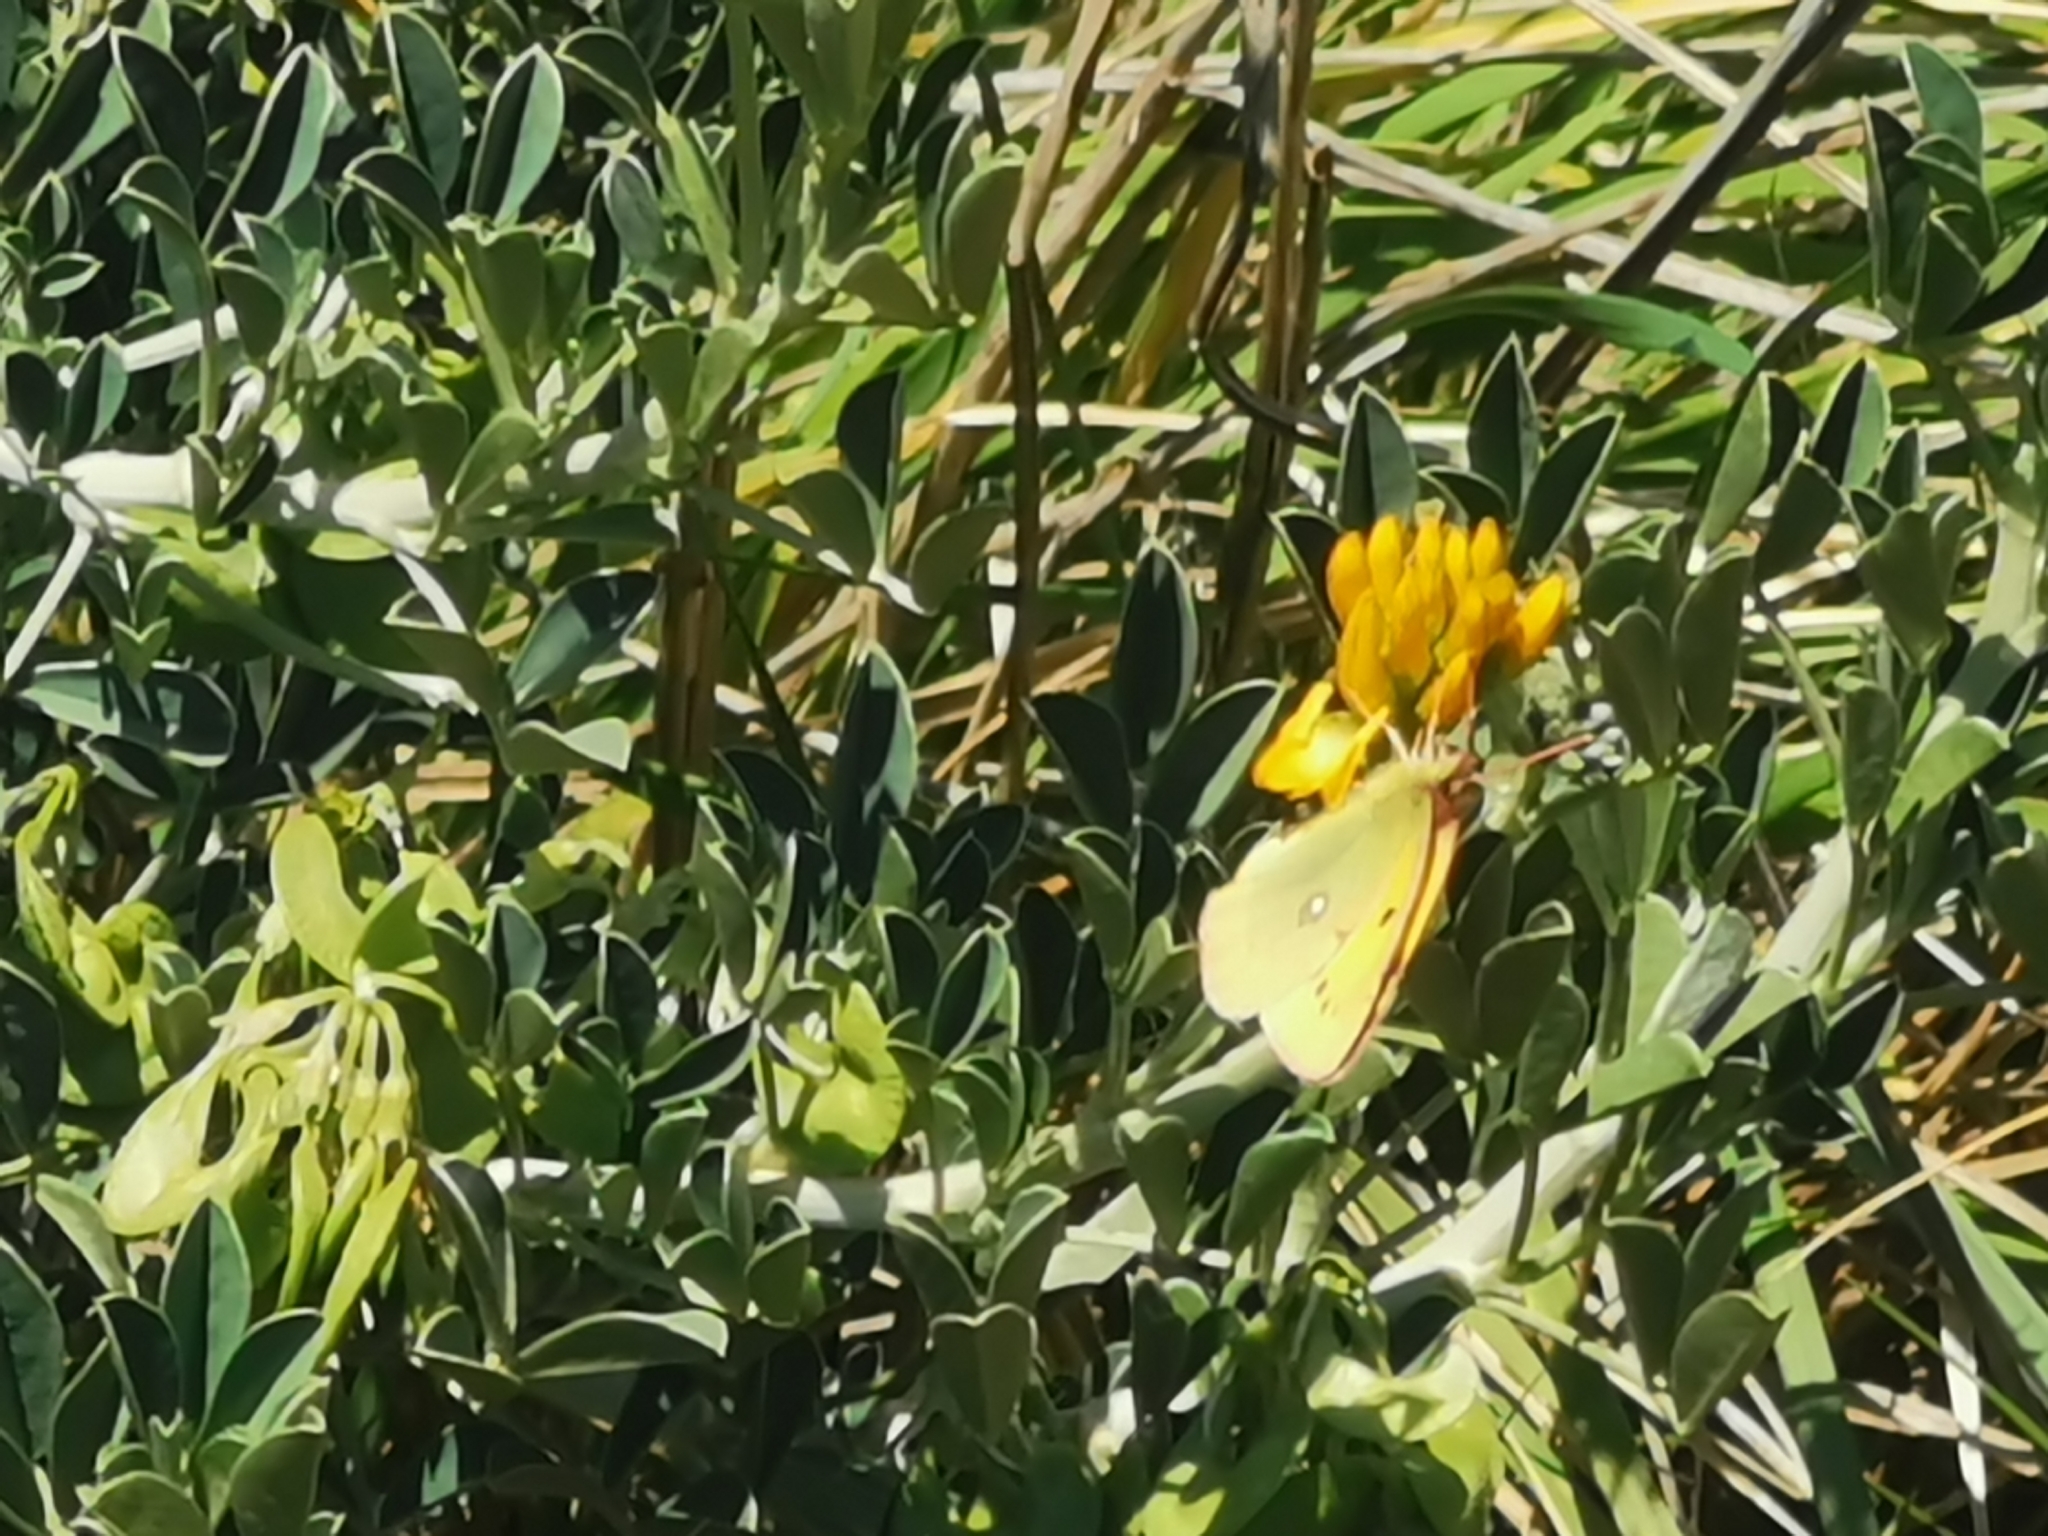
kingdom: Animalia
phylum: Arthropoda
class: Insecta
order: Lepidoptera
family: Pieridae
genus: Colias
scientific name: Colias croceus
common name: Clouded yellow
